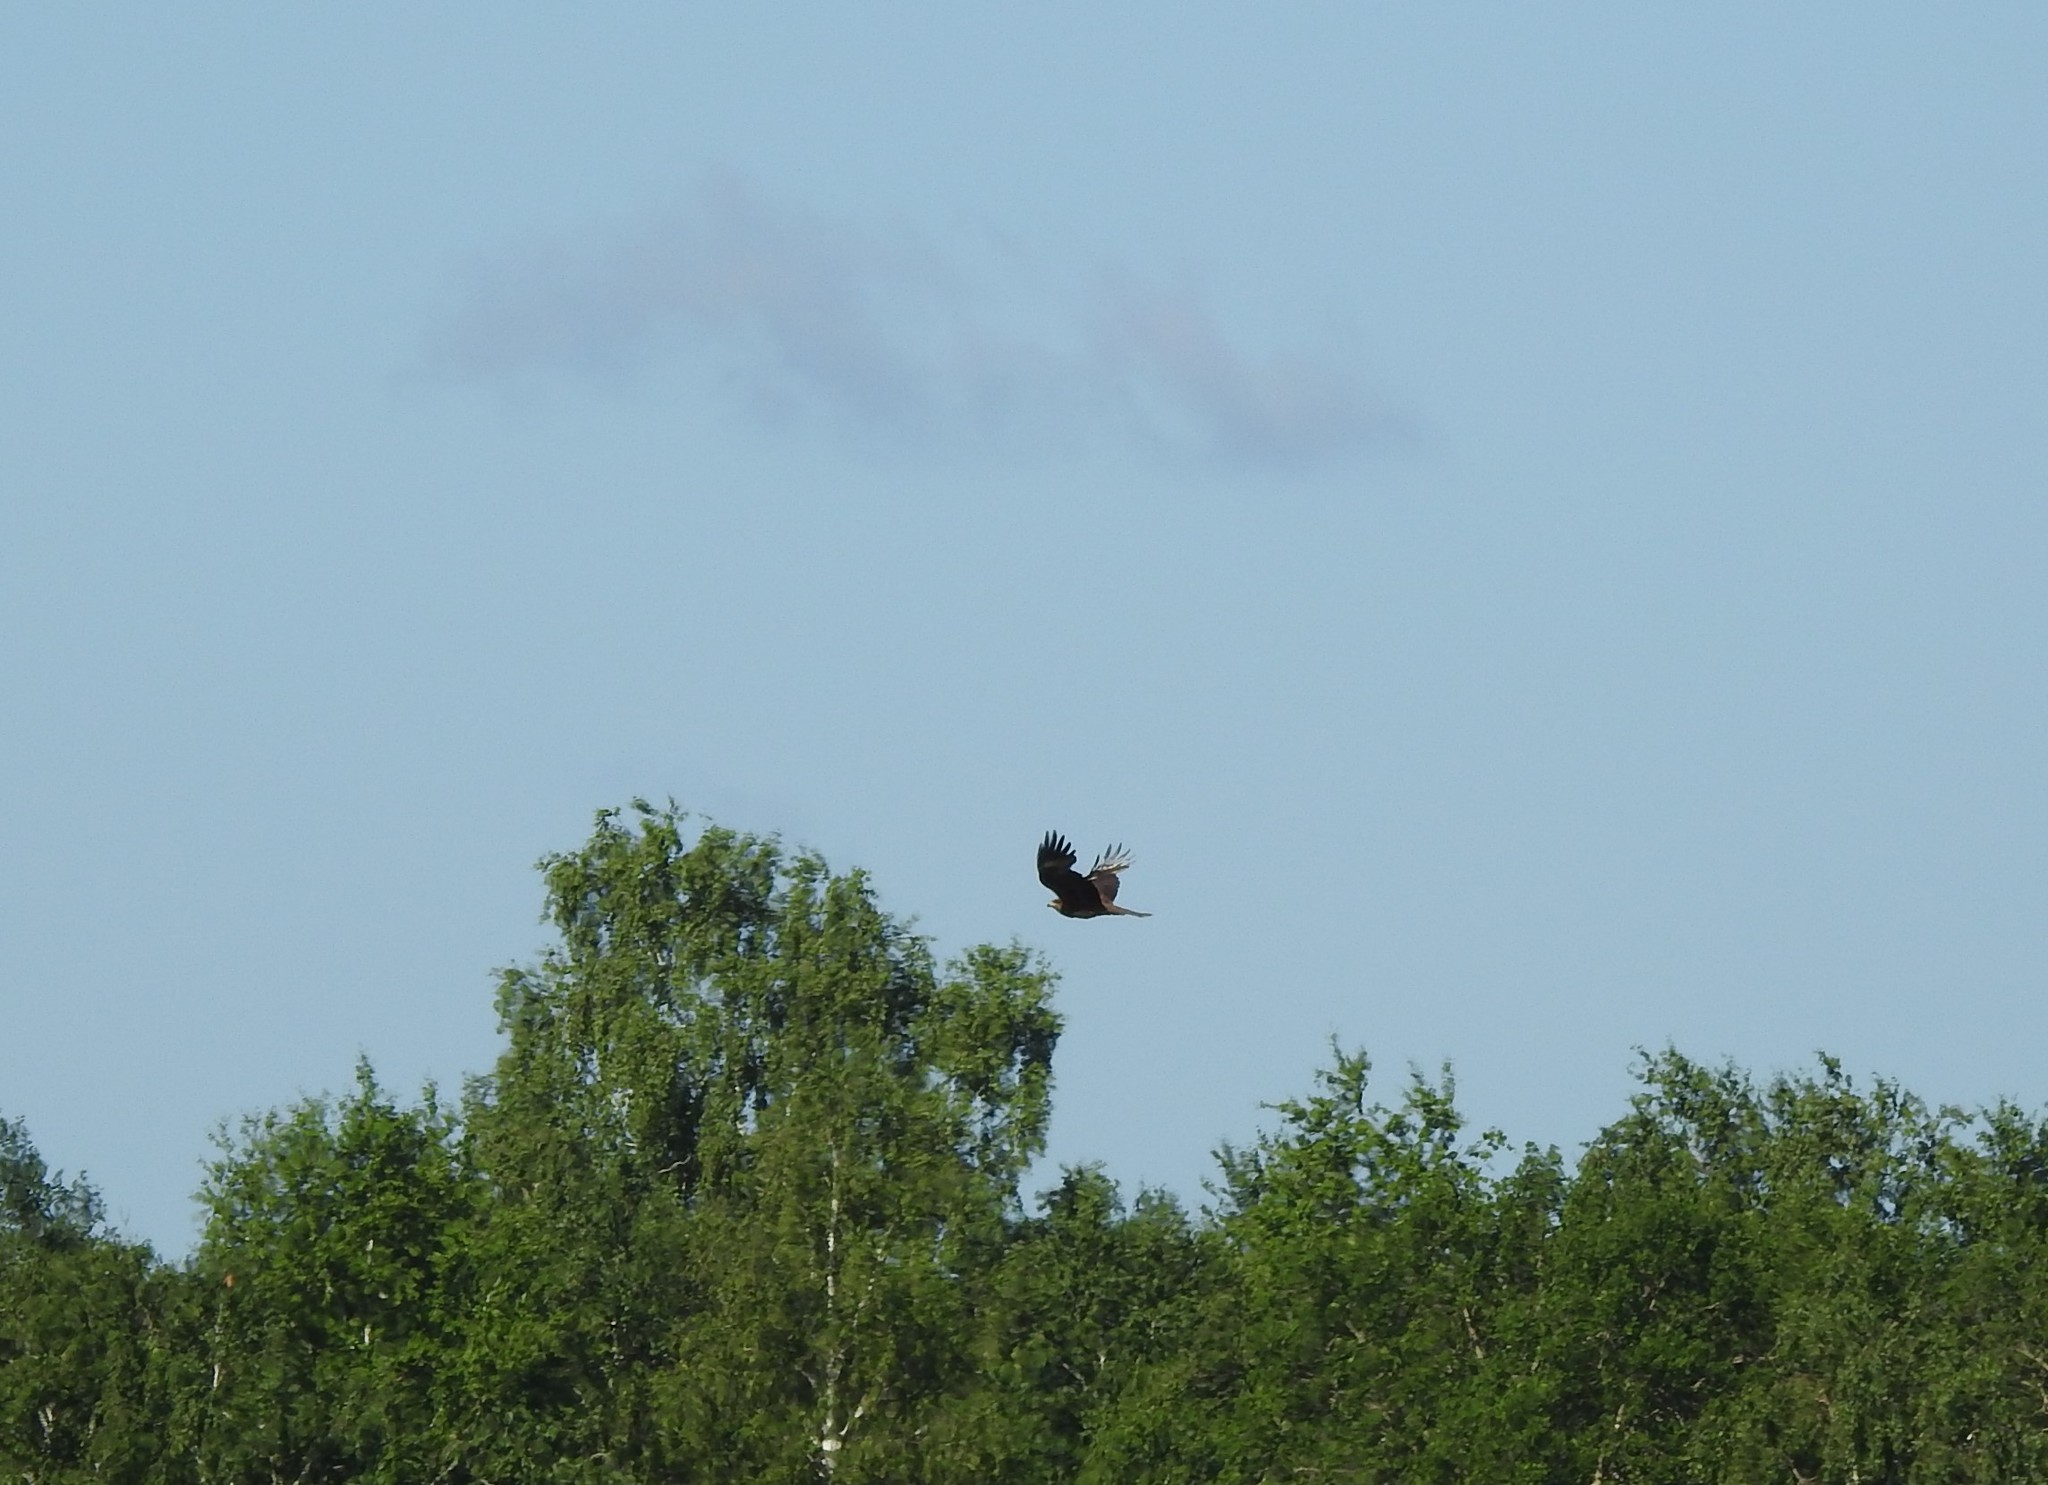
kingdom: Animalia
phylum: Chordata
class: Aves
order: Accipitriformes
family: Accipitridae
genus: Milvus
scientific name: Milvus migrans
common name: Black kite
